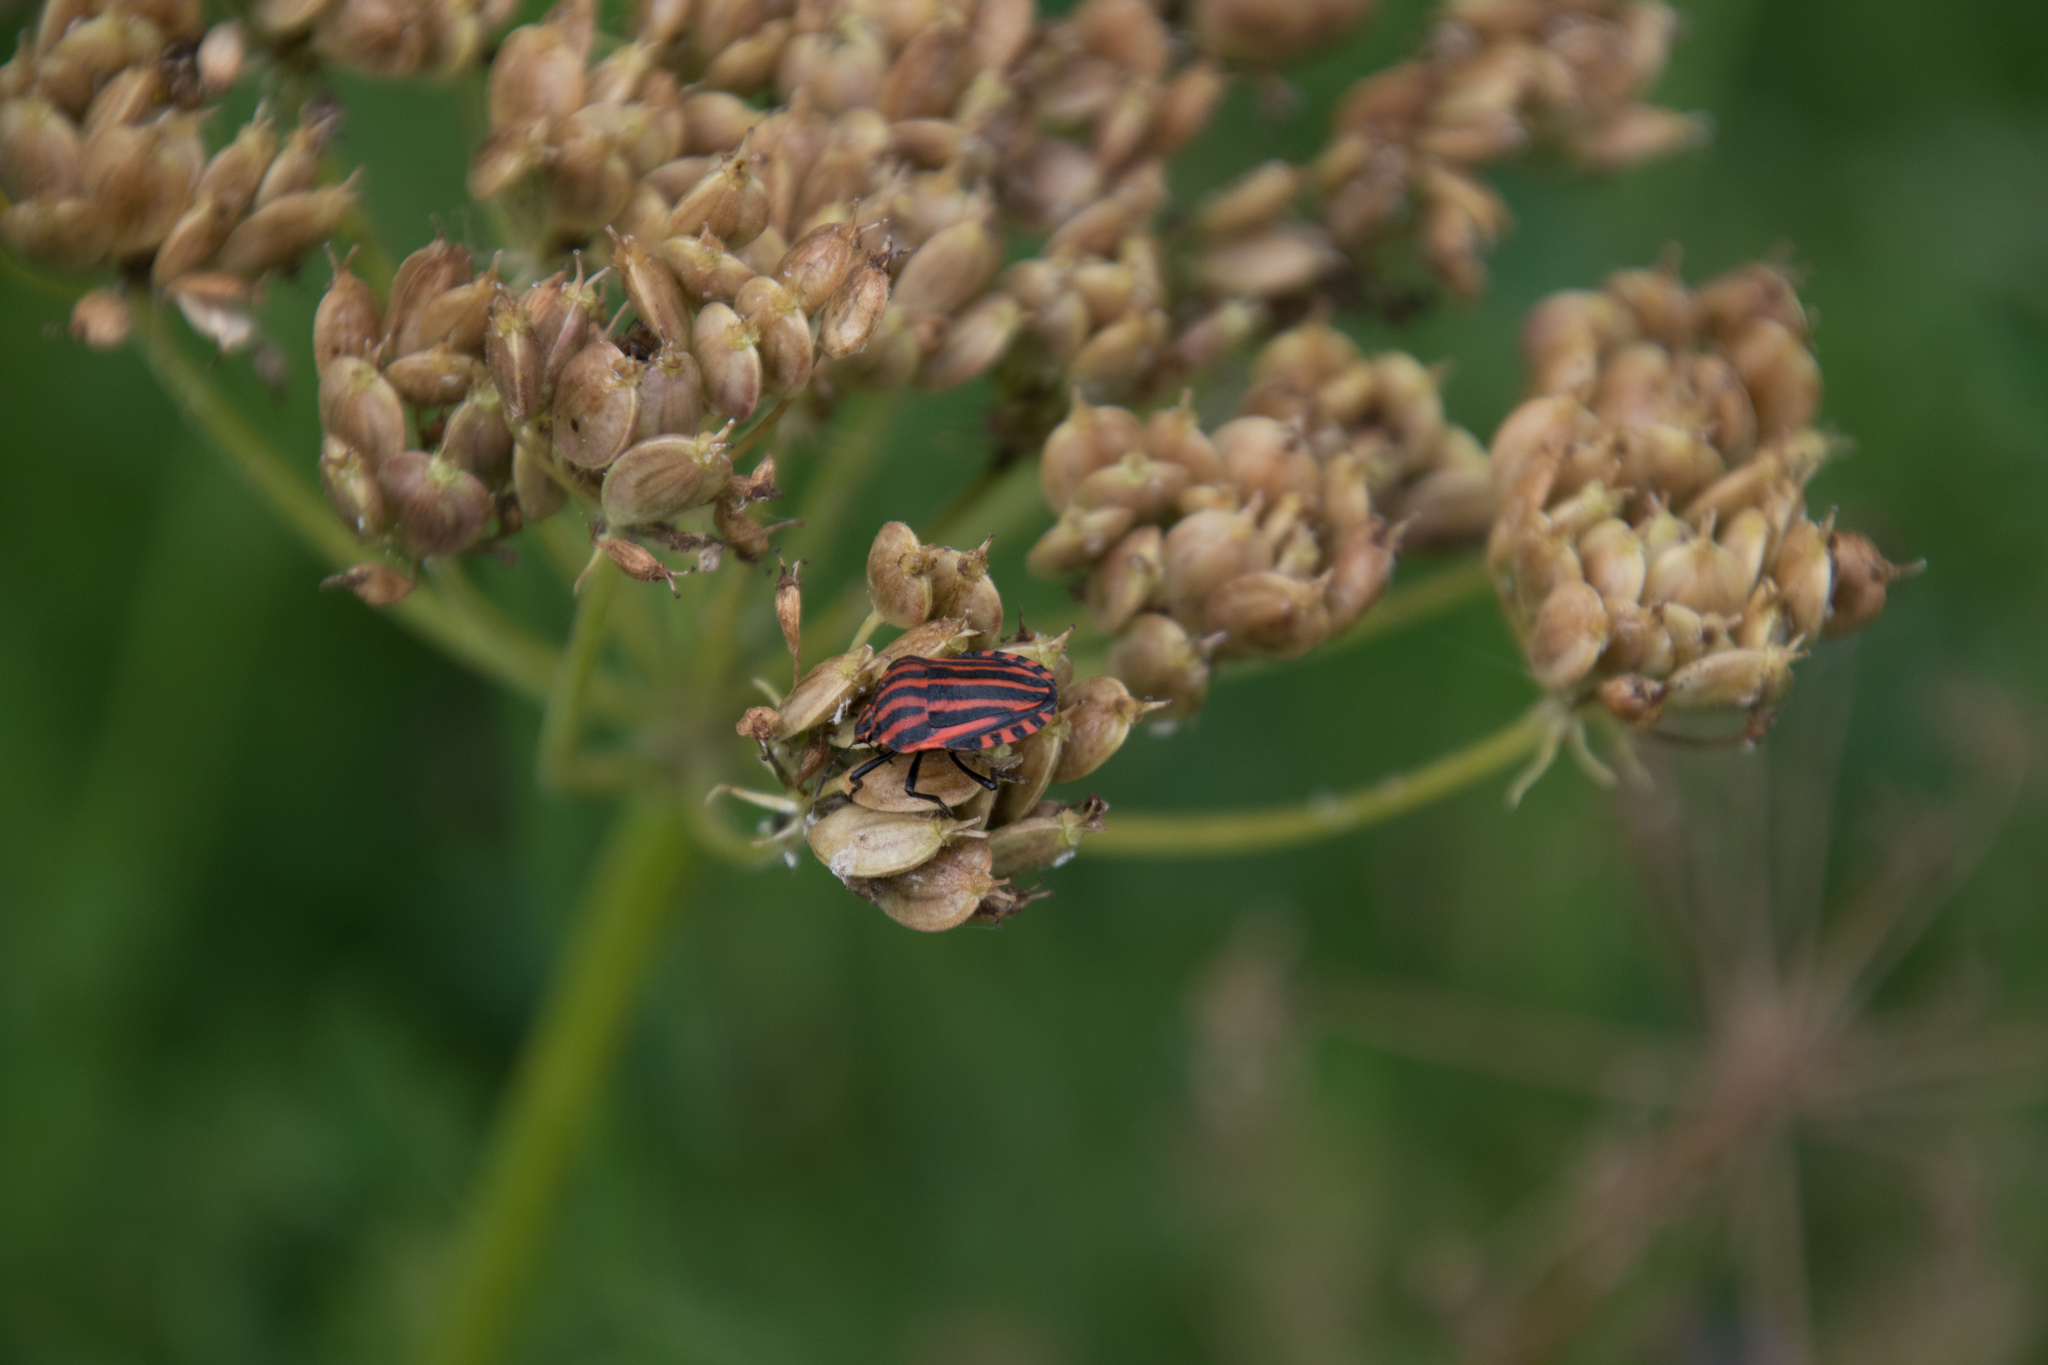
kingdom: Animalia
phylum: Arthropoda
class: Insecta
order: Hemiptera
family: Pentatomidae
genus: Graphosoma
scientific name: Graphosoma italicum
